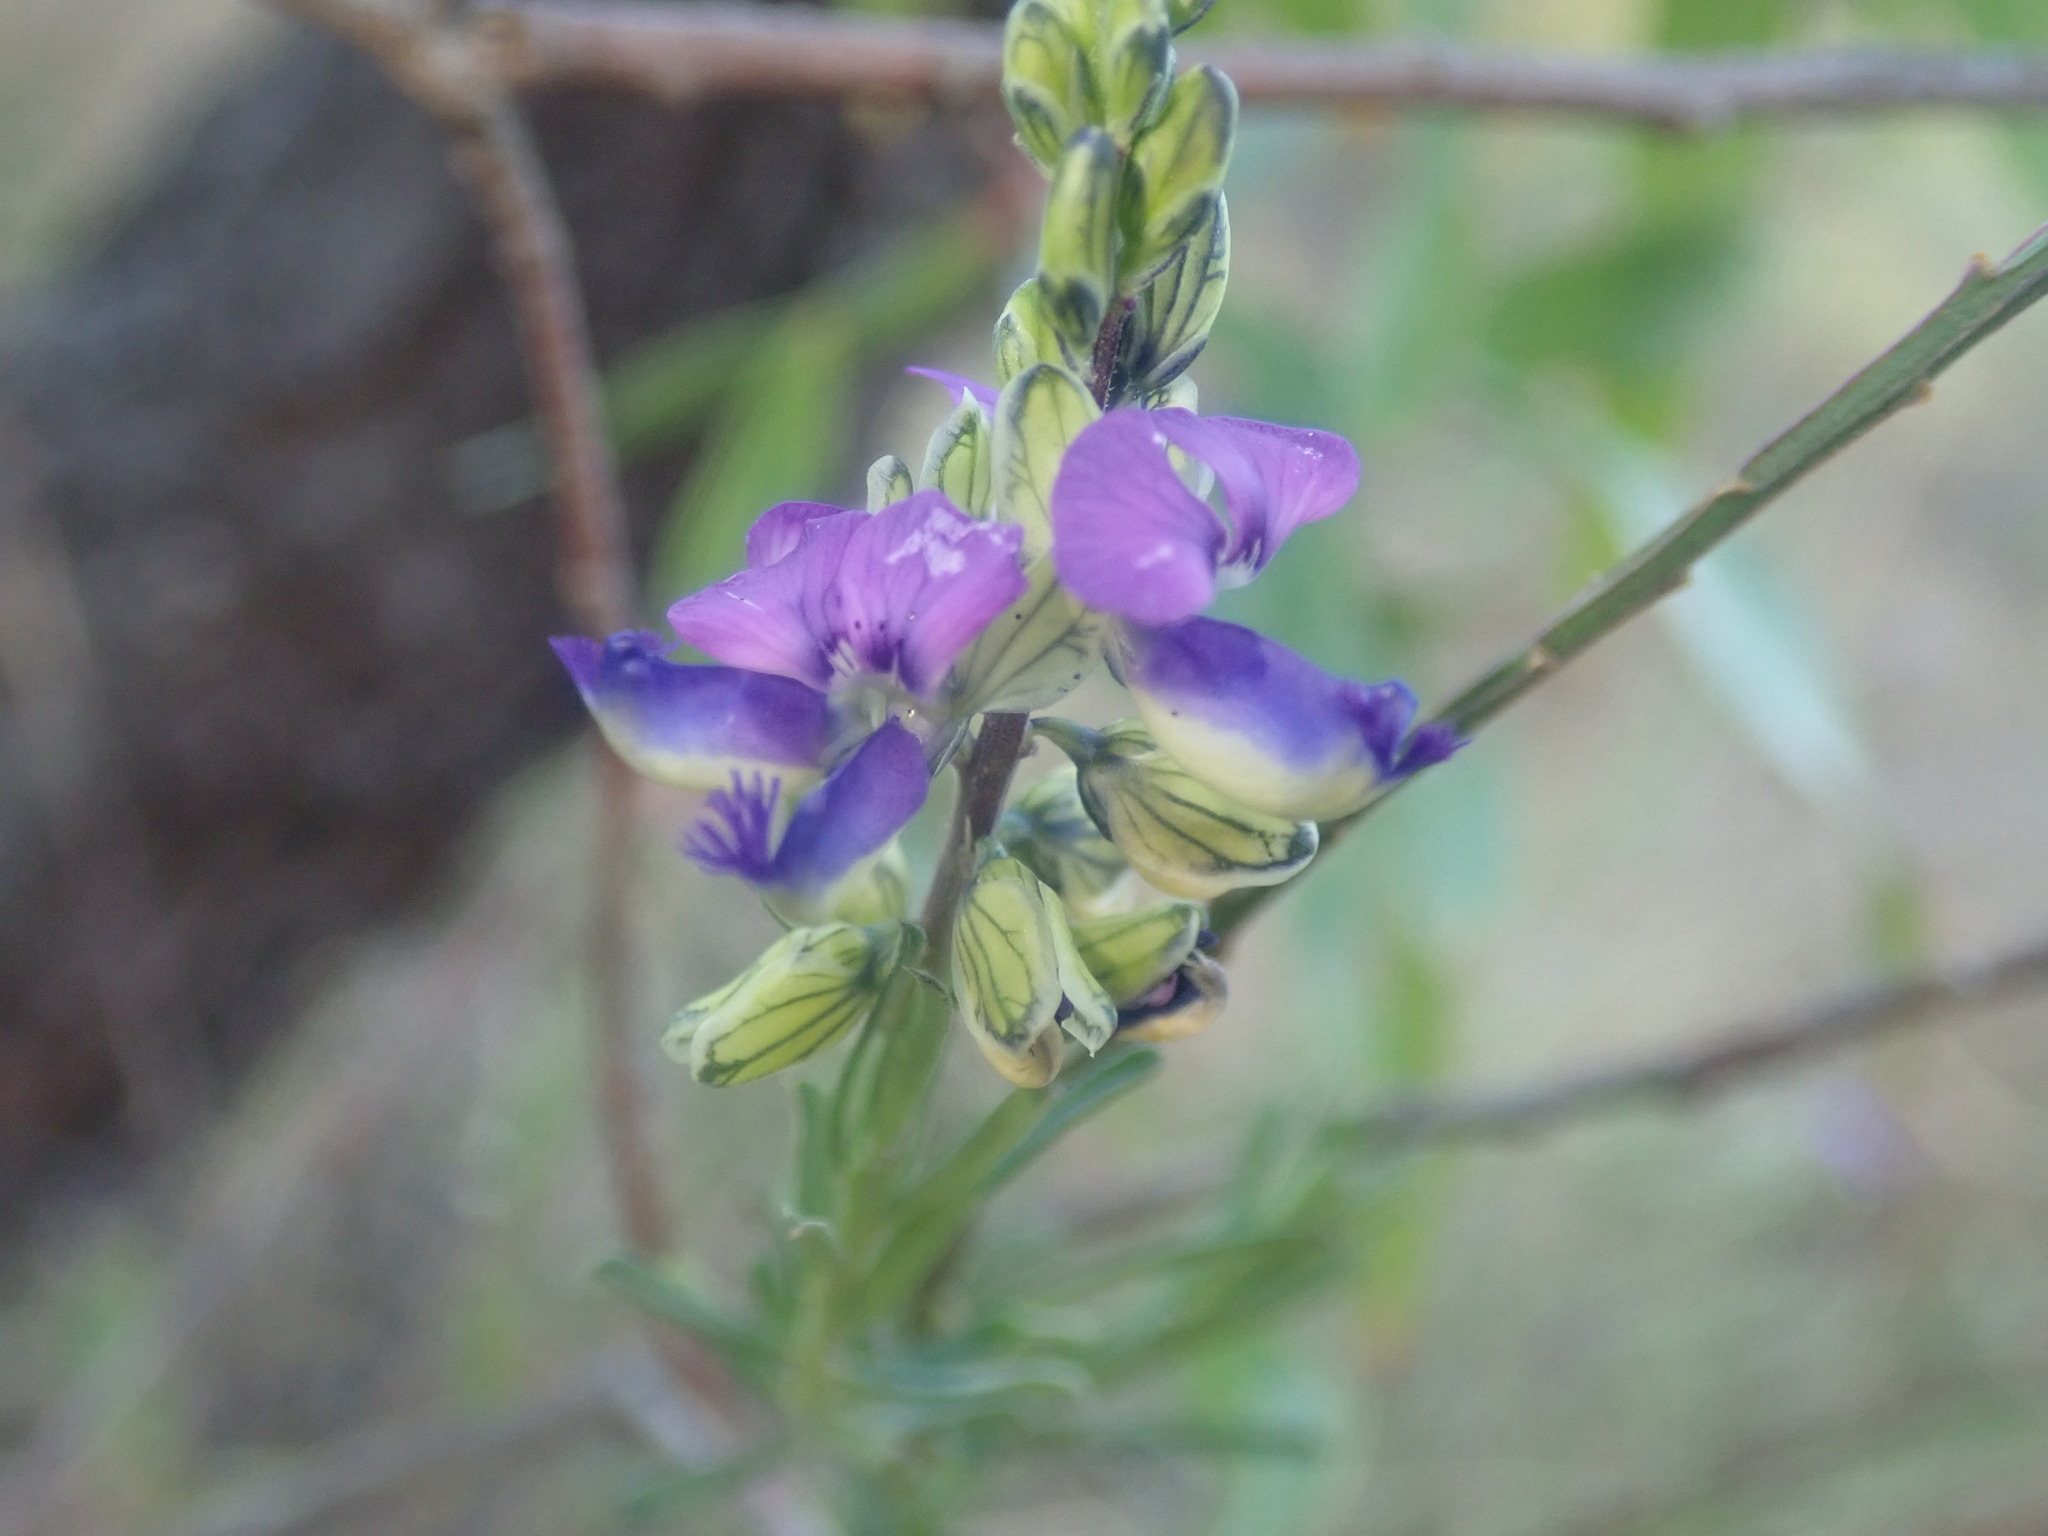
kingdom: Plantae
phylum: Tracheophyta
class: Magnoliopsida
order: Fabales
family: Polygalaceae
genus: Polygala
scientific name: Polygala uncinata
